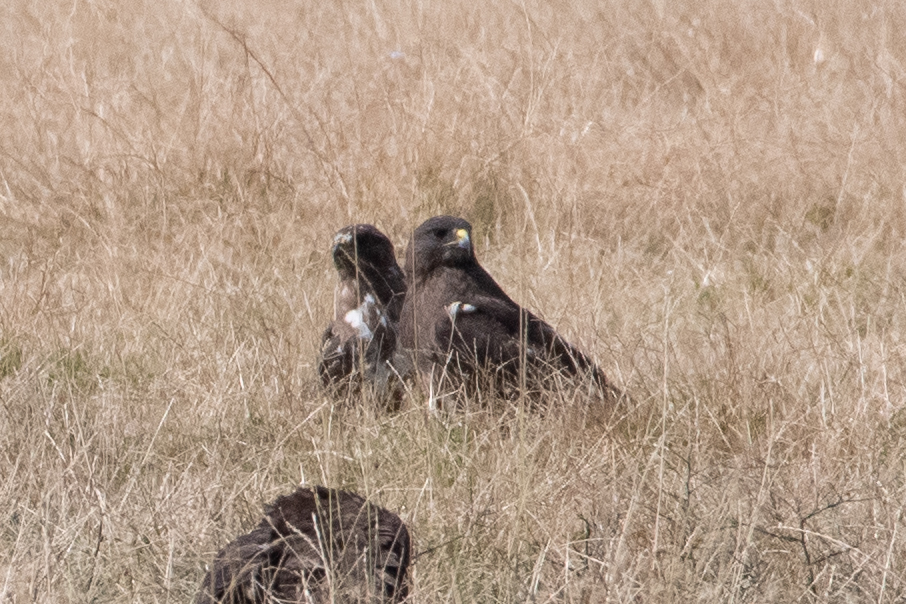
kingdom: Animalia
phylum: Chordata
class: Aves
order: Accipitriformes
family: Accipitridae
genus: Buteo
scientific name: Buteo swainsoni
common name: Swainson's hawk
